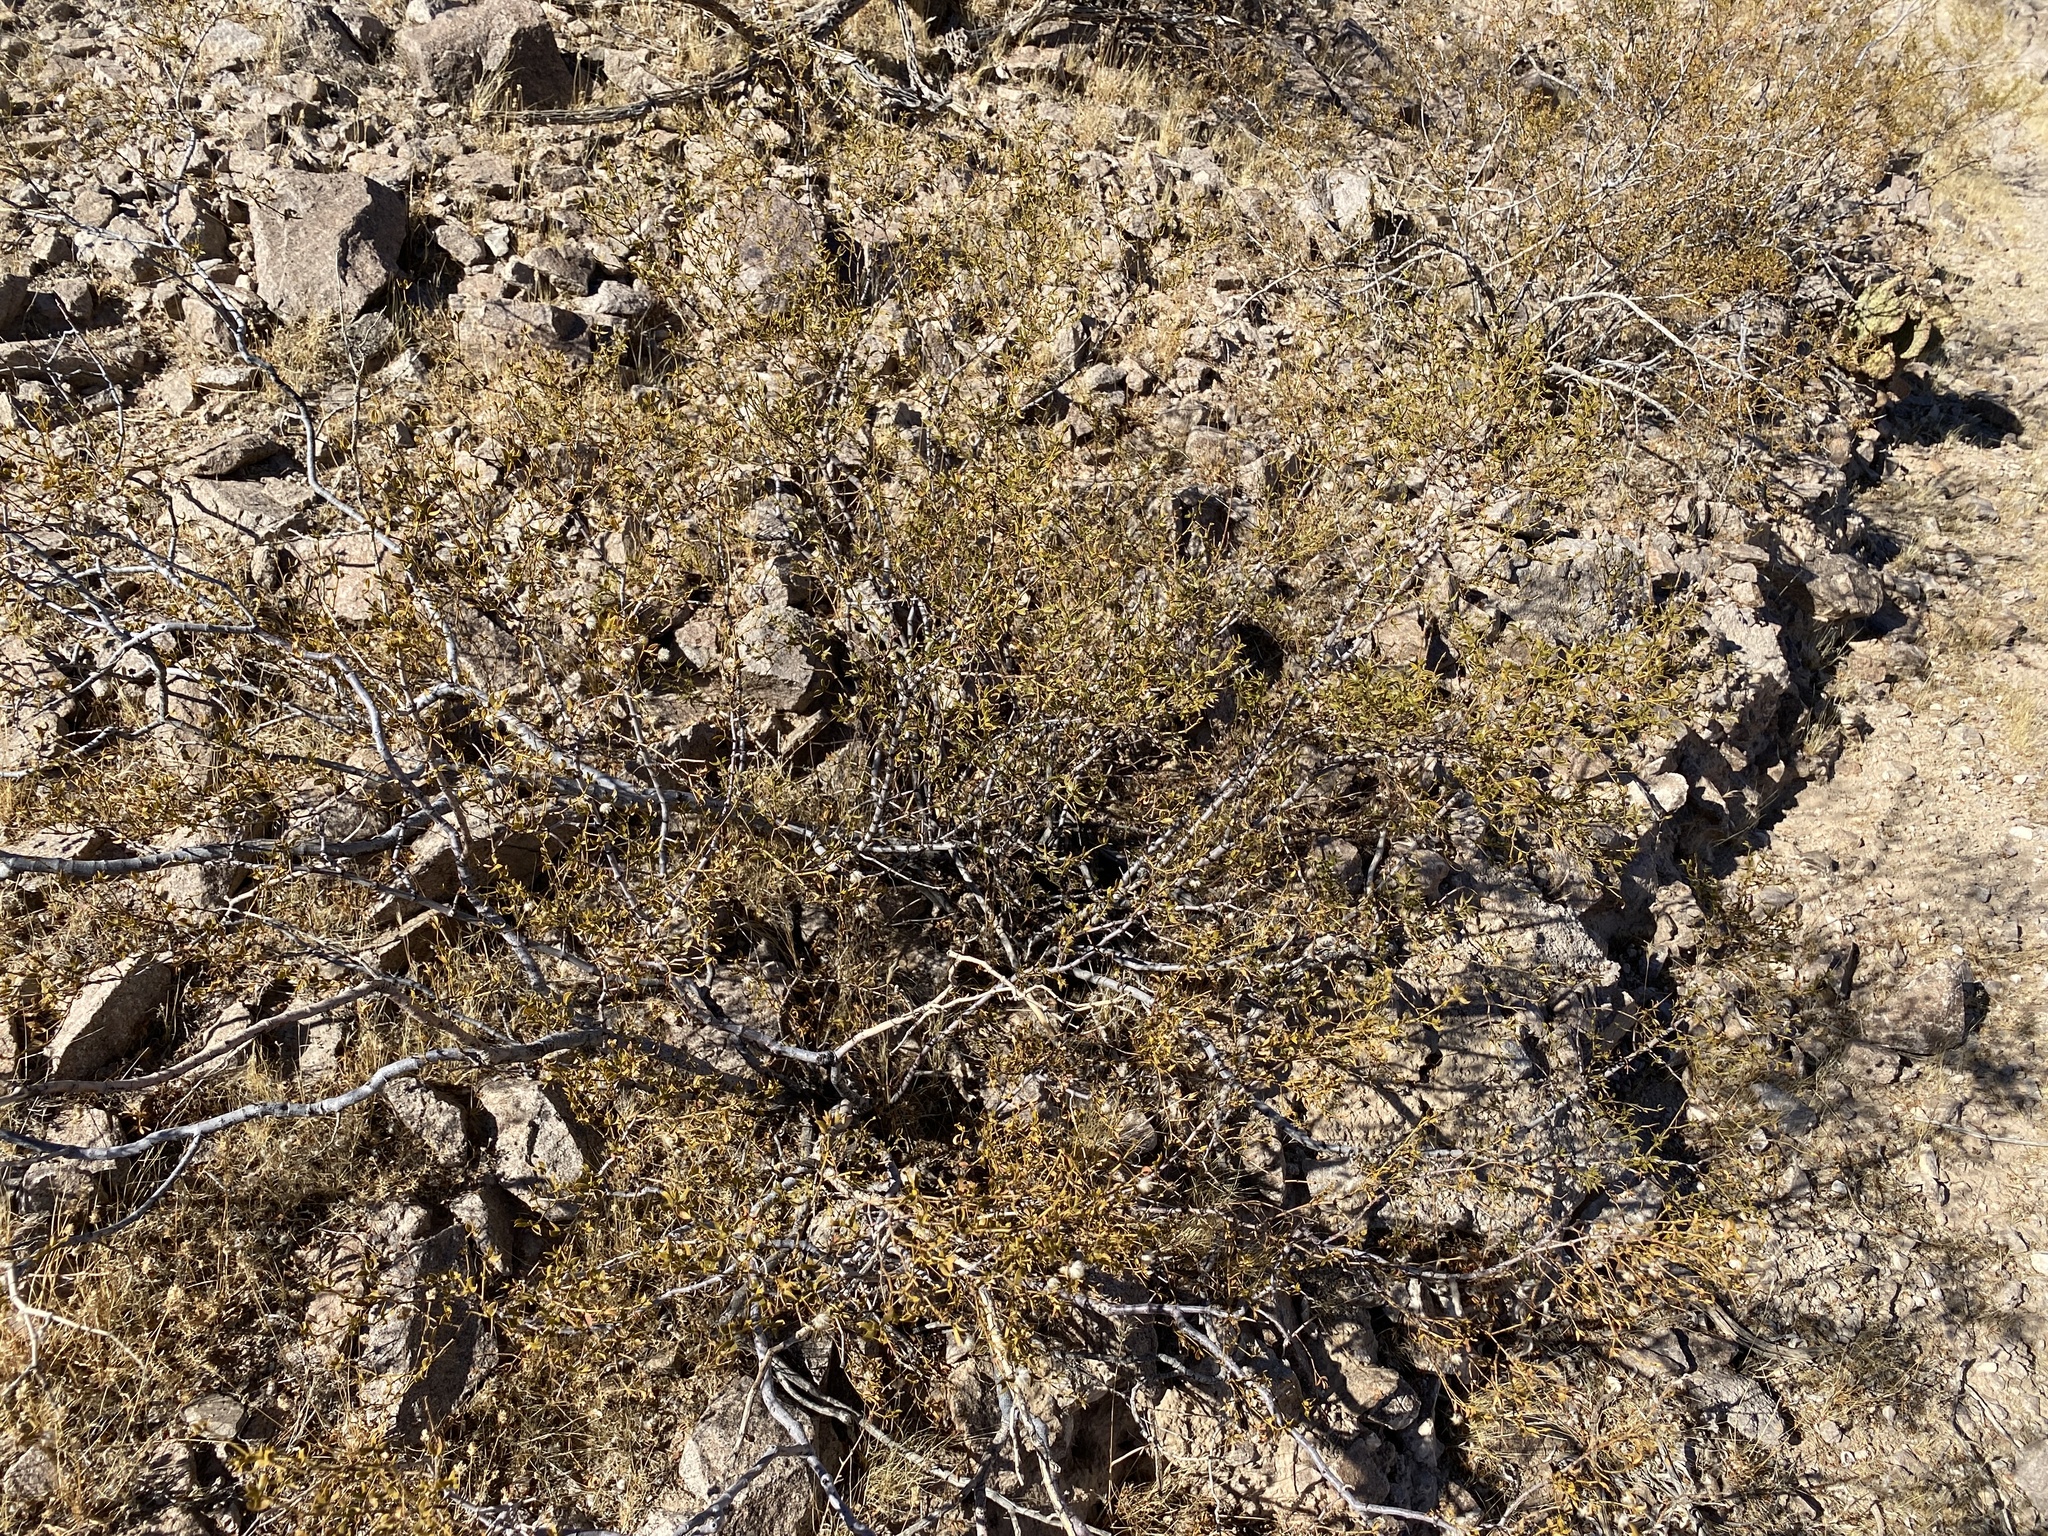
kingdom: Plantae
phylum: Tracheophyta
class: Magnoliopsida
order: Zygophyllales
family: Zygophyllaceae
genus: Larrea
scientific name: Larrea tridentata
